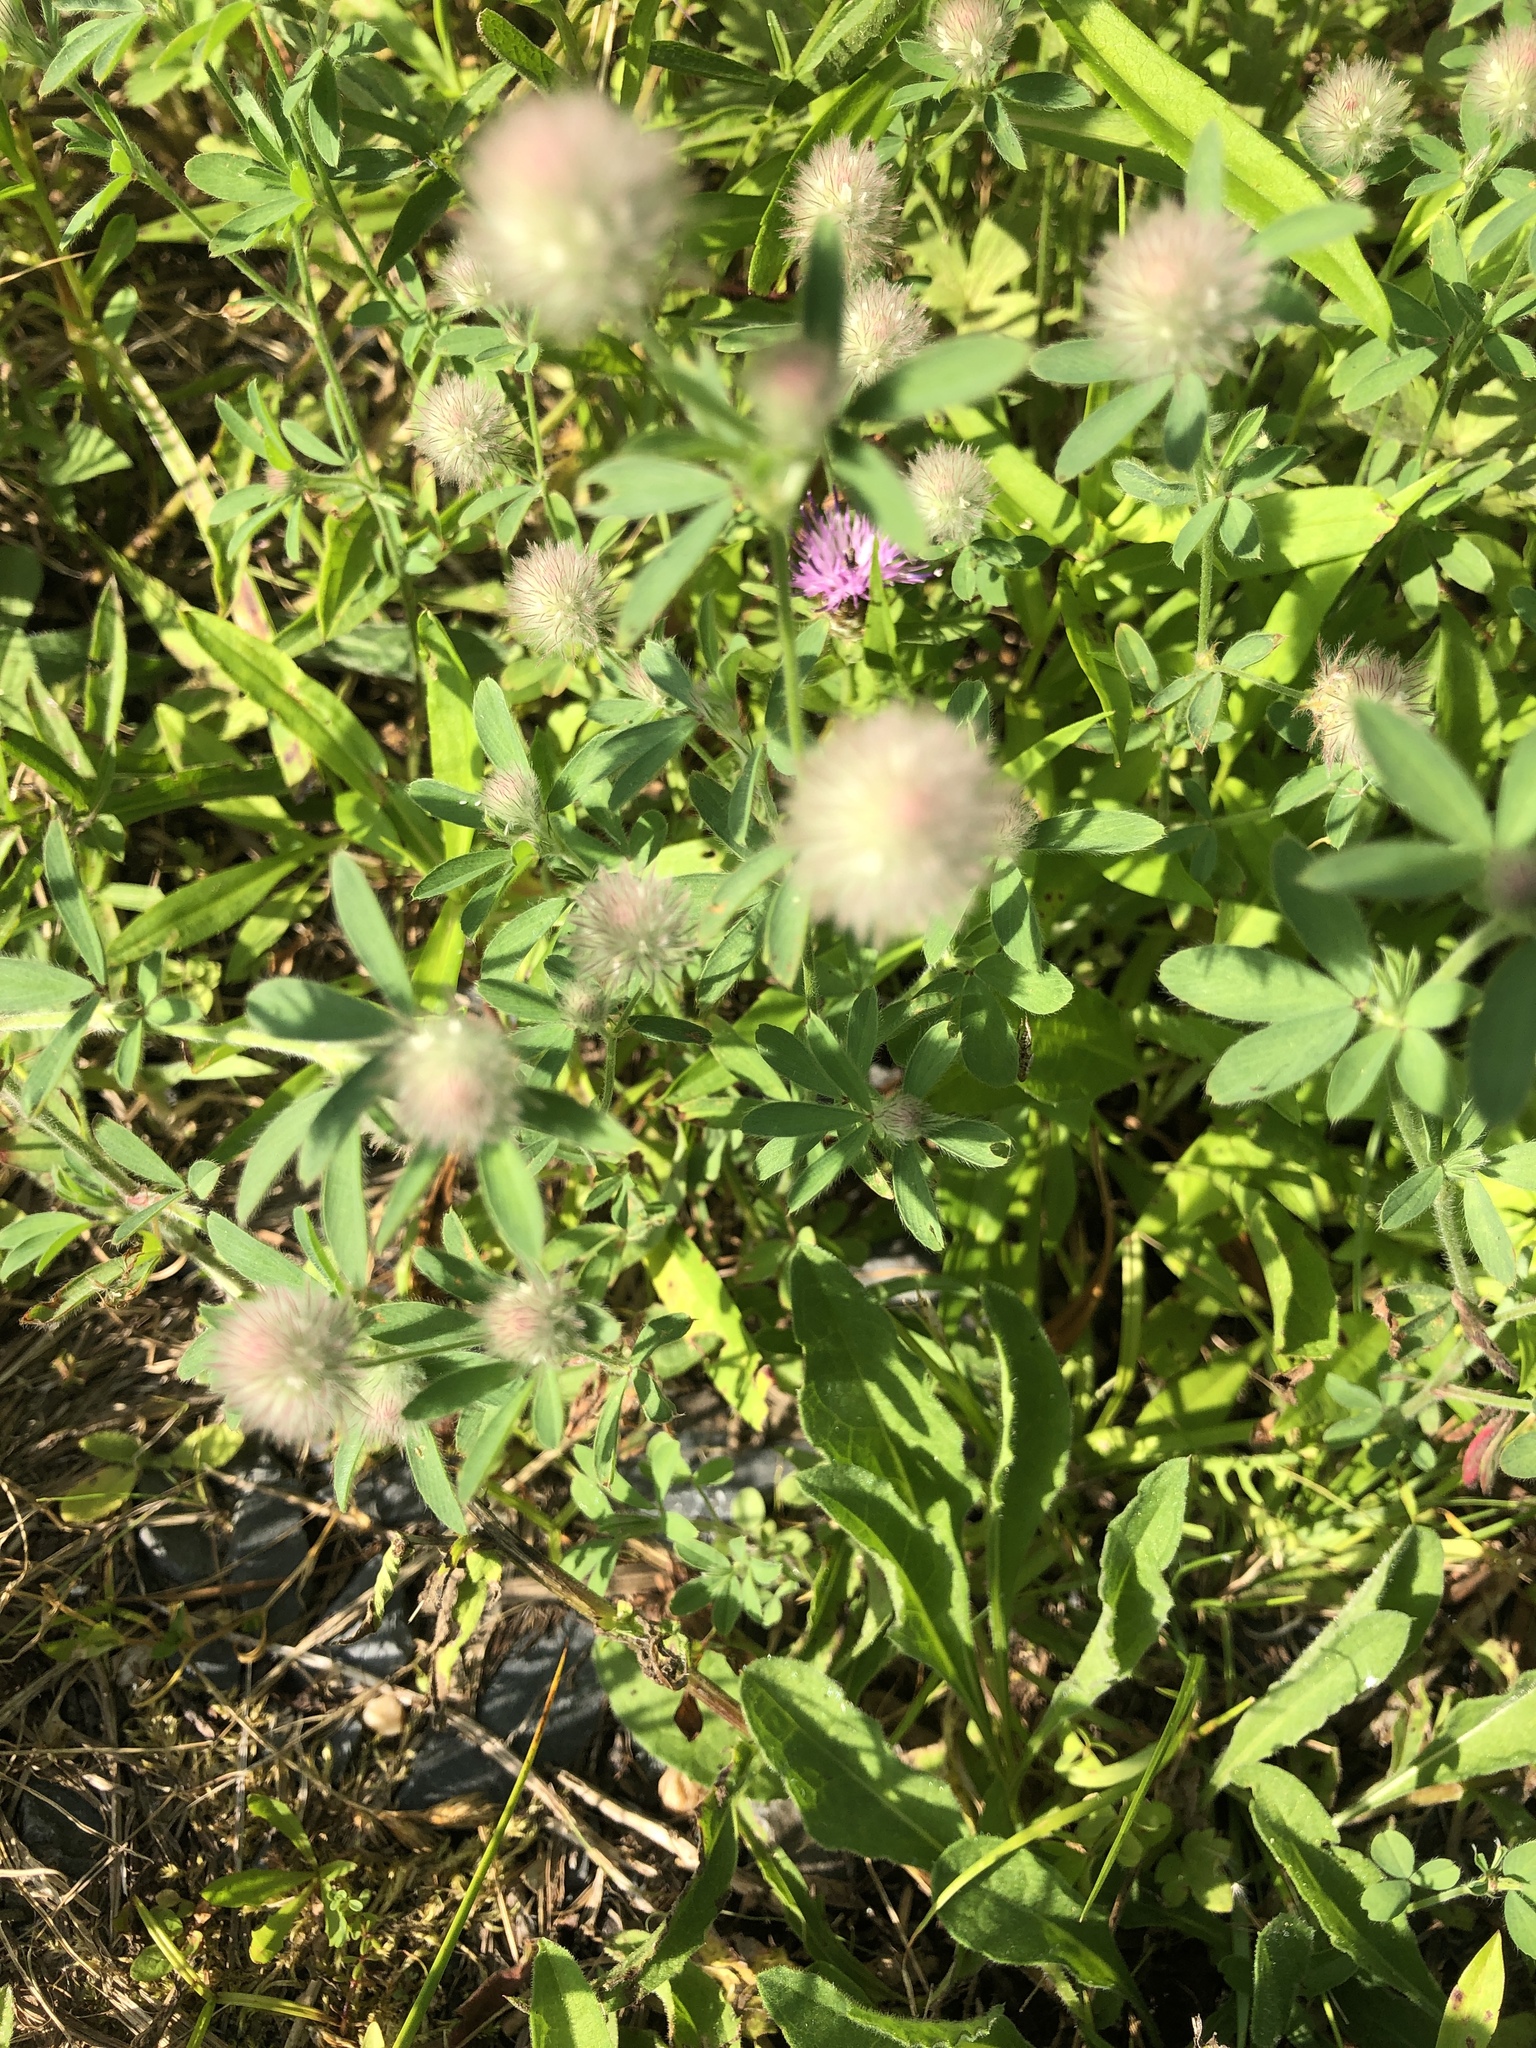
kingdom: Plantae
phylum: Tracheophyta
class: Magnoliopsida
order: Fabales
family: Fabaceae
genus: Trifolium
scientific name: Trifolium arvense
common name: Hare's-foot clover
